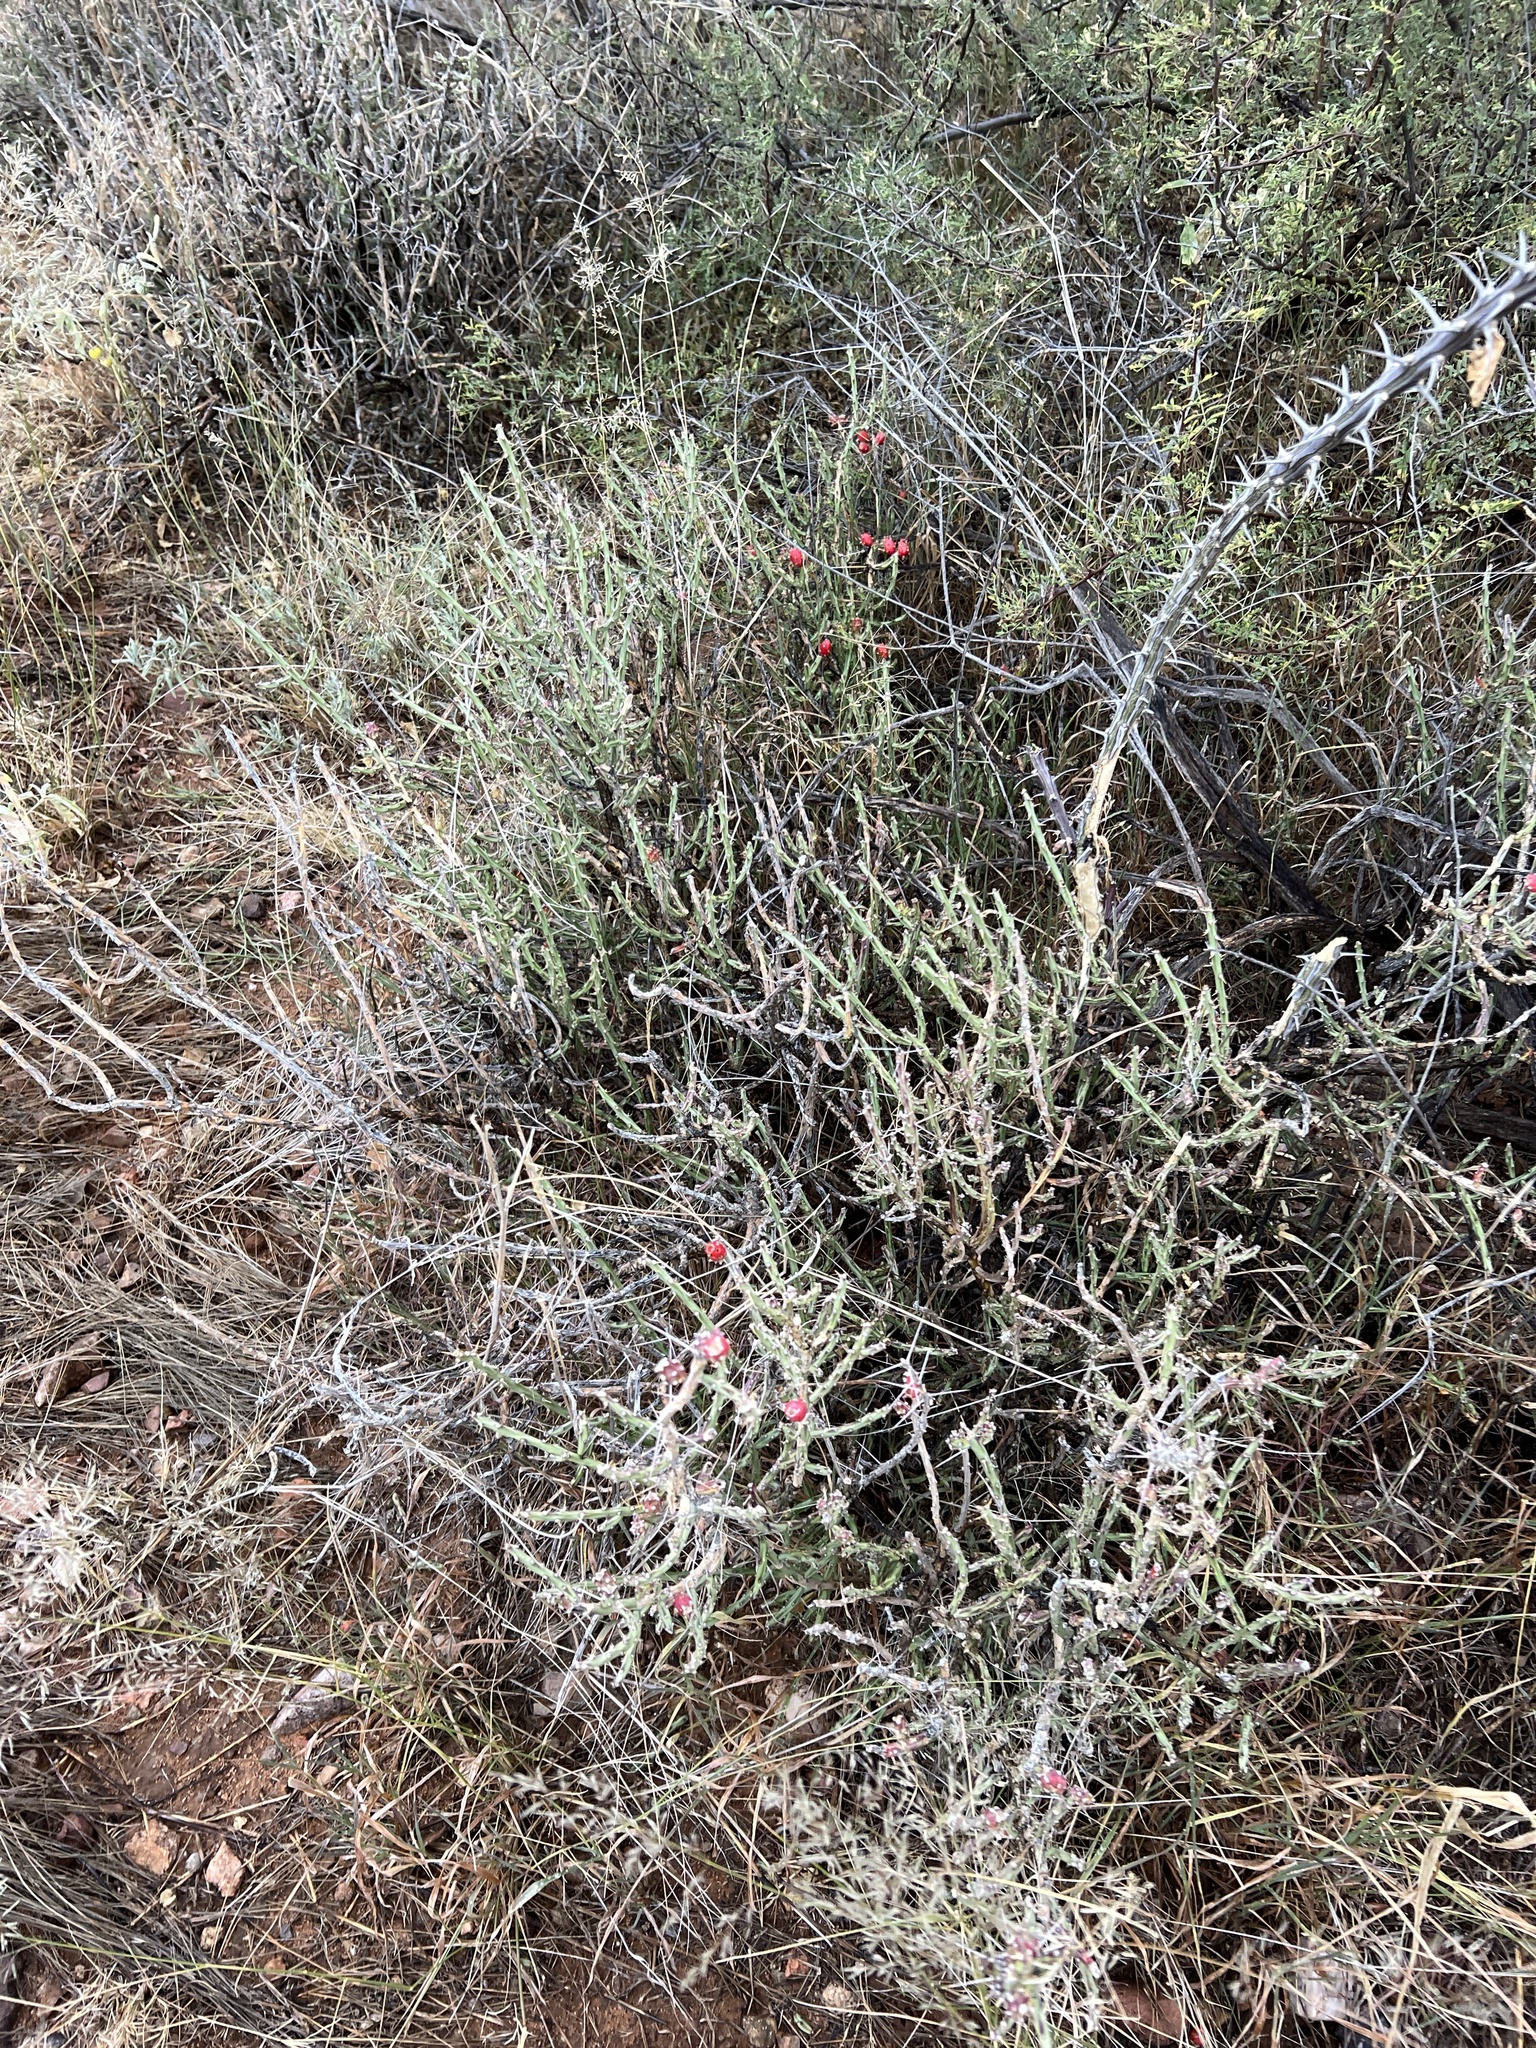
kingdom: Plantae
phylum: Tracheophyta
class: Magnoliopsida
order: Caryophyllales
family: Cactaceae
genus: Cylindropuntia
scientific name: Cylindropuntia leptocaulis
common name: Christmas cactus
